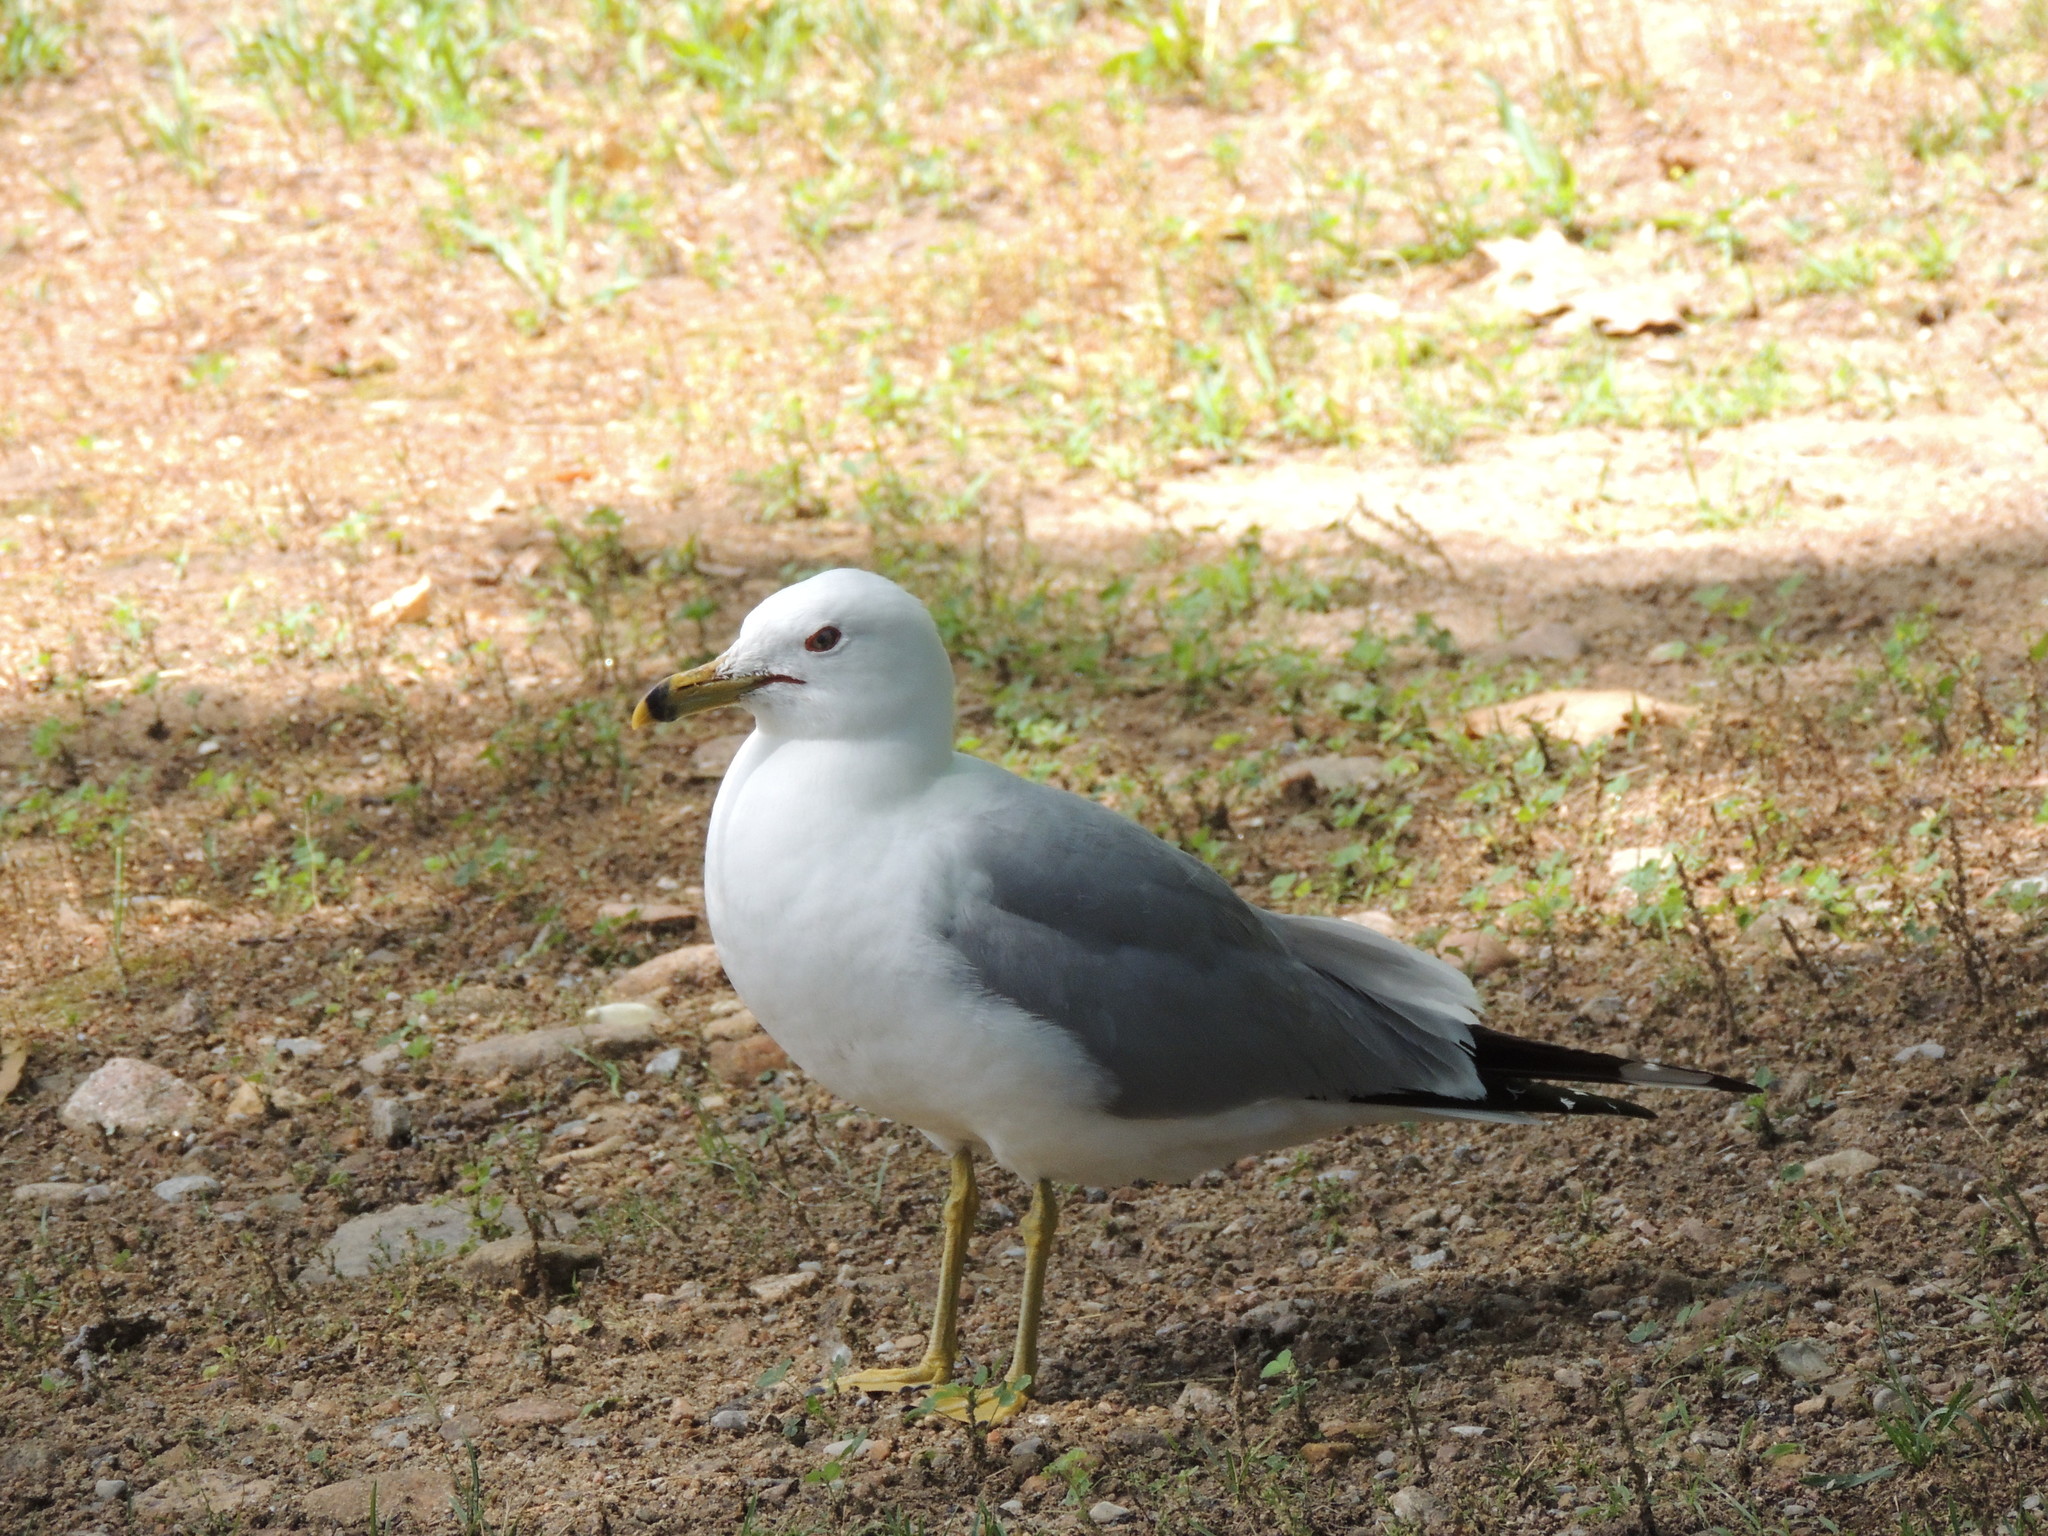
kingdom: Animalia
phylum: Chordata
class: Aves
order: Charadriiformes
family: Laridae
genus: Larus
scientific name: Larus delawarensis
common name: Ring-billed gull
